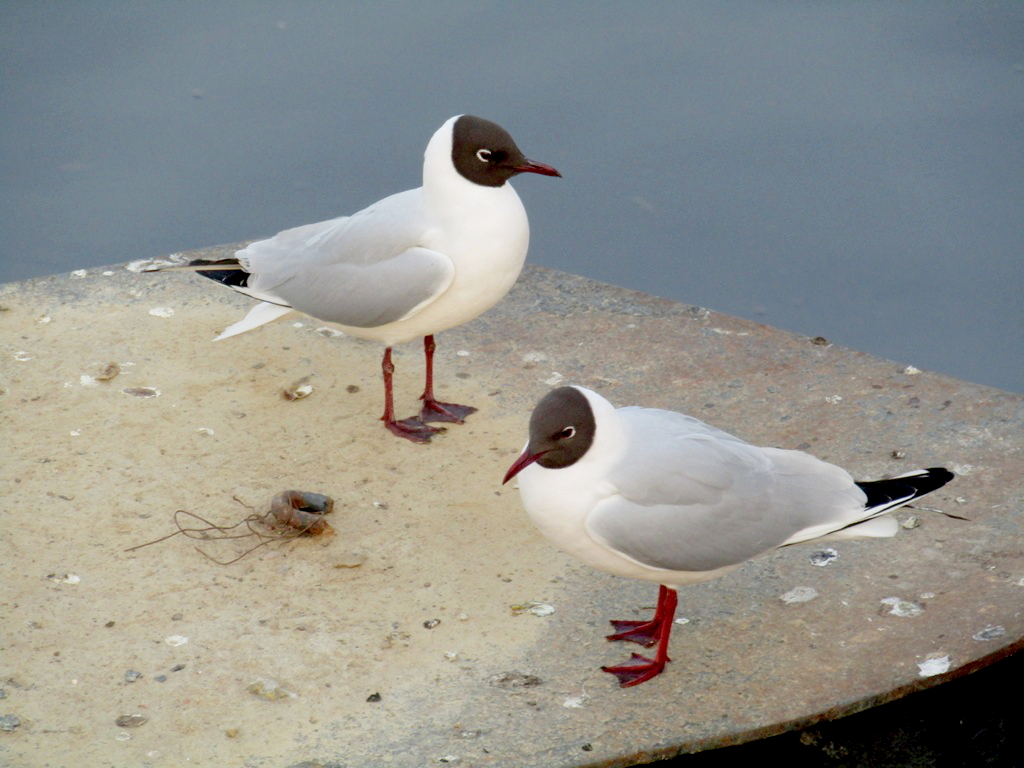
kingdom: Animalia
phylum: Chordata
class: Aves
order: Charadriiformes
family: Laridae
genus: Chroicocephalus
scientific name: Chroicocephalus ridibundus
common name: Black-headed gull
